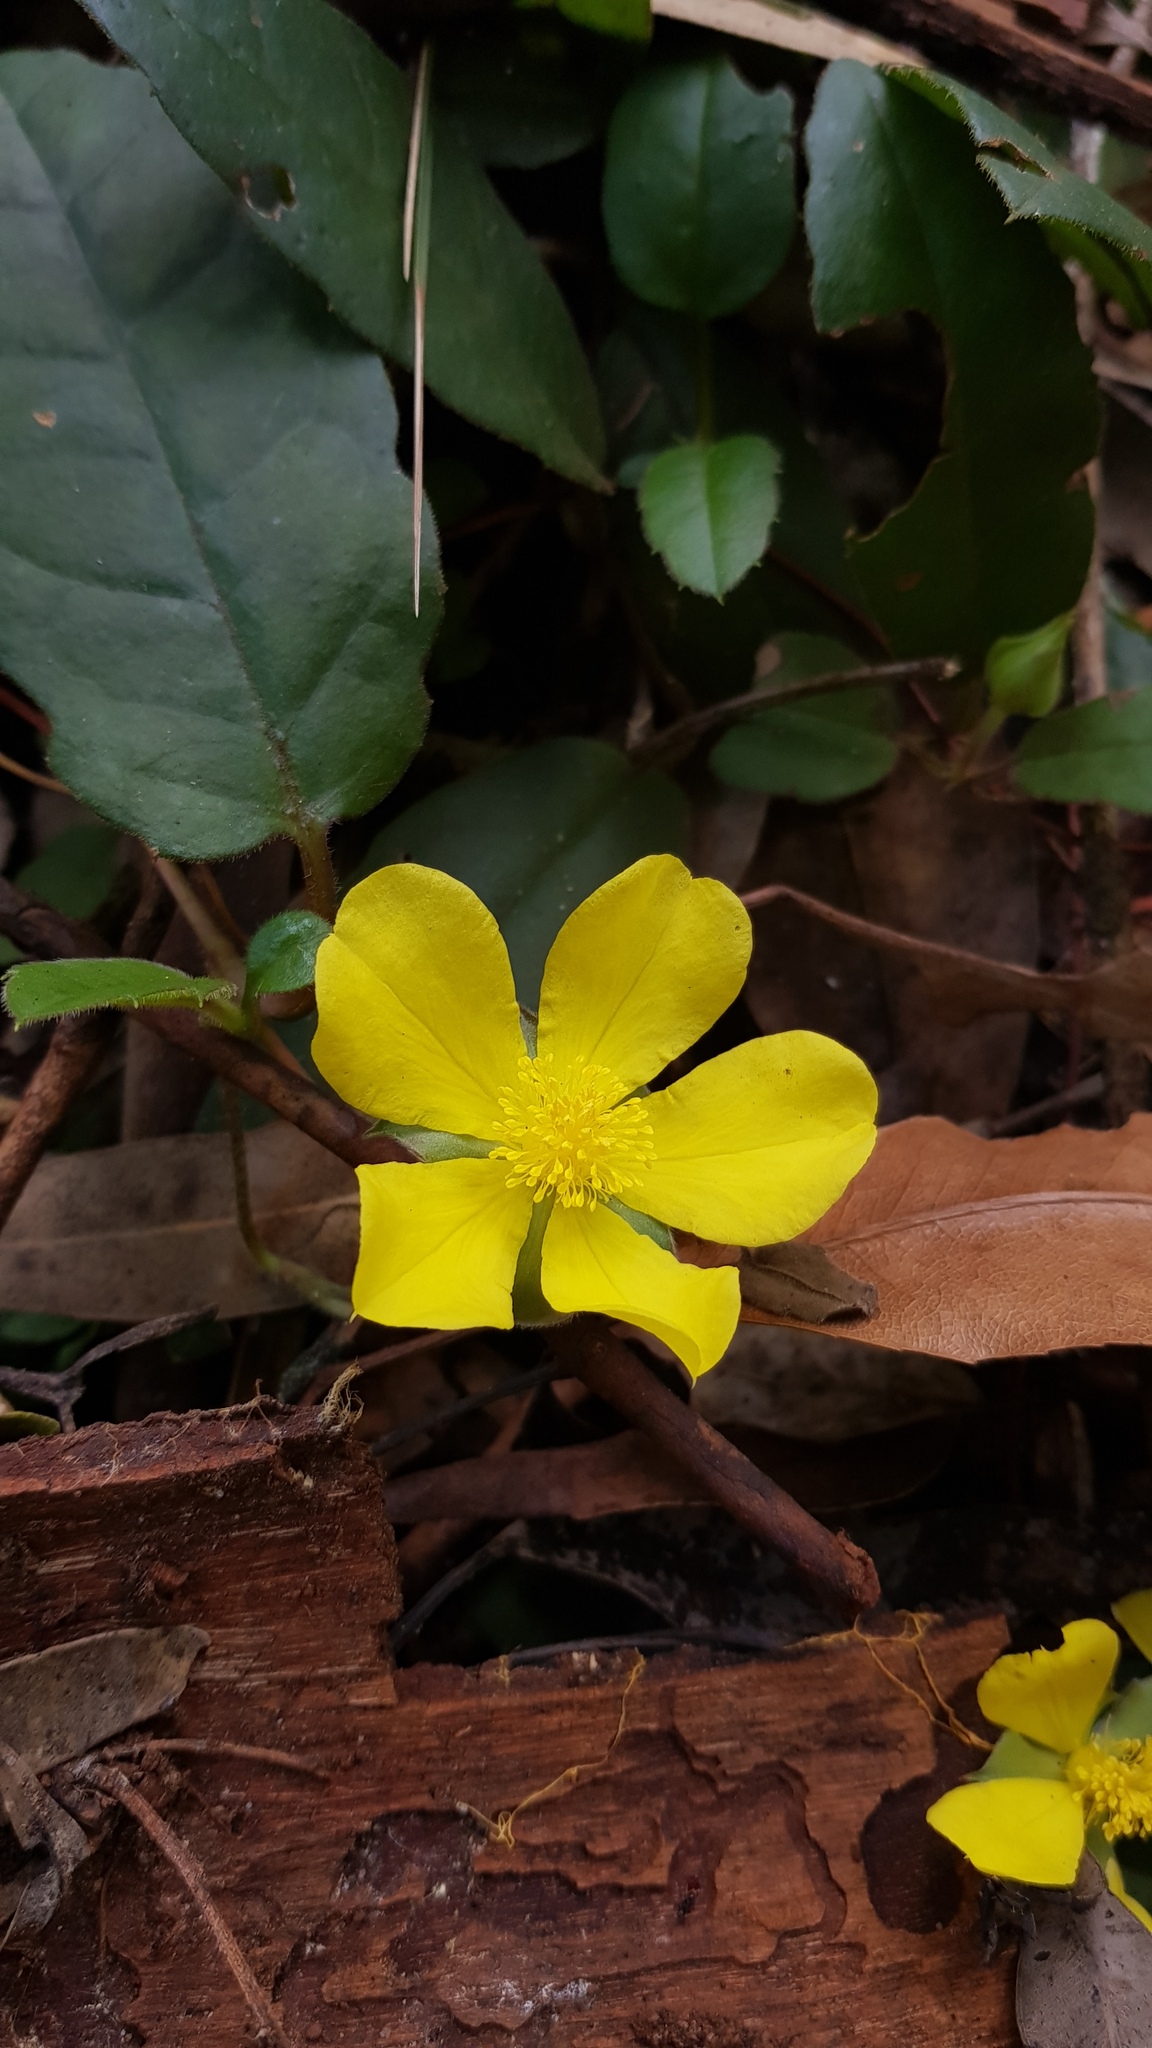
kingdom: Plantae
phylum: Tracheophyta
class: Magnoliopsida
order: Dilleniales
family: Dilleniaceae
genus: Hibbertia
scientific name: Hibbertia dentata
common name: Trailing guinea-flower
